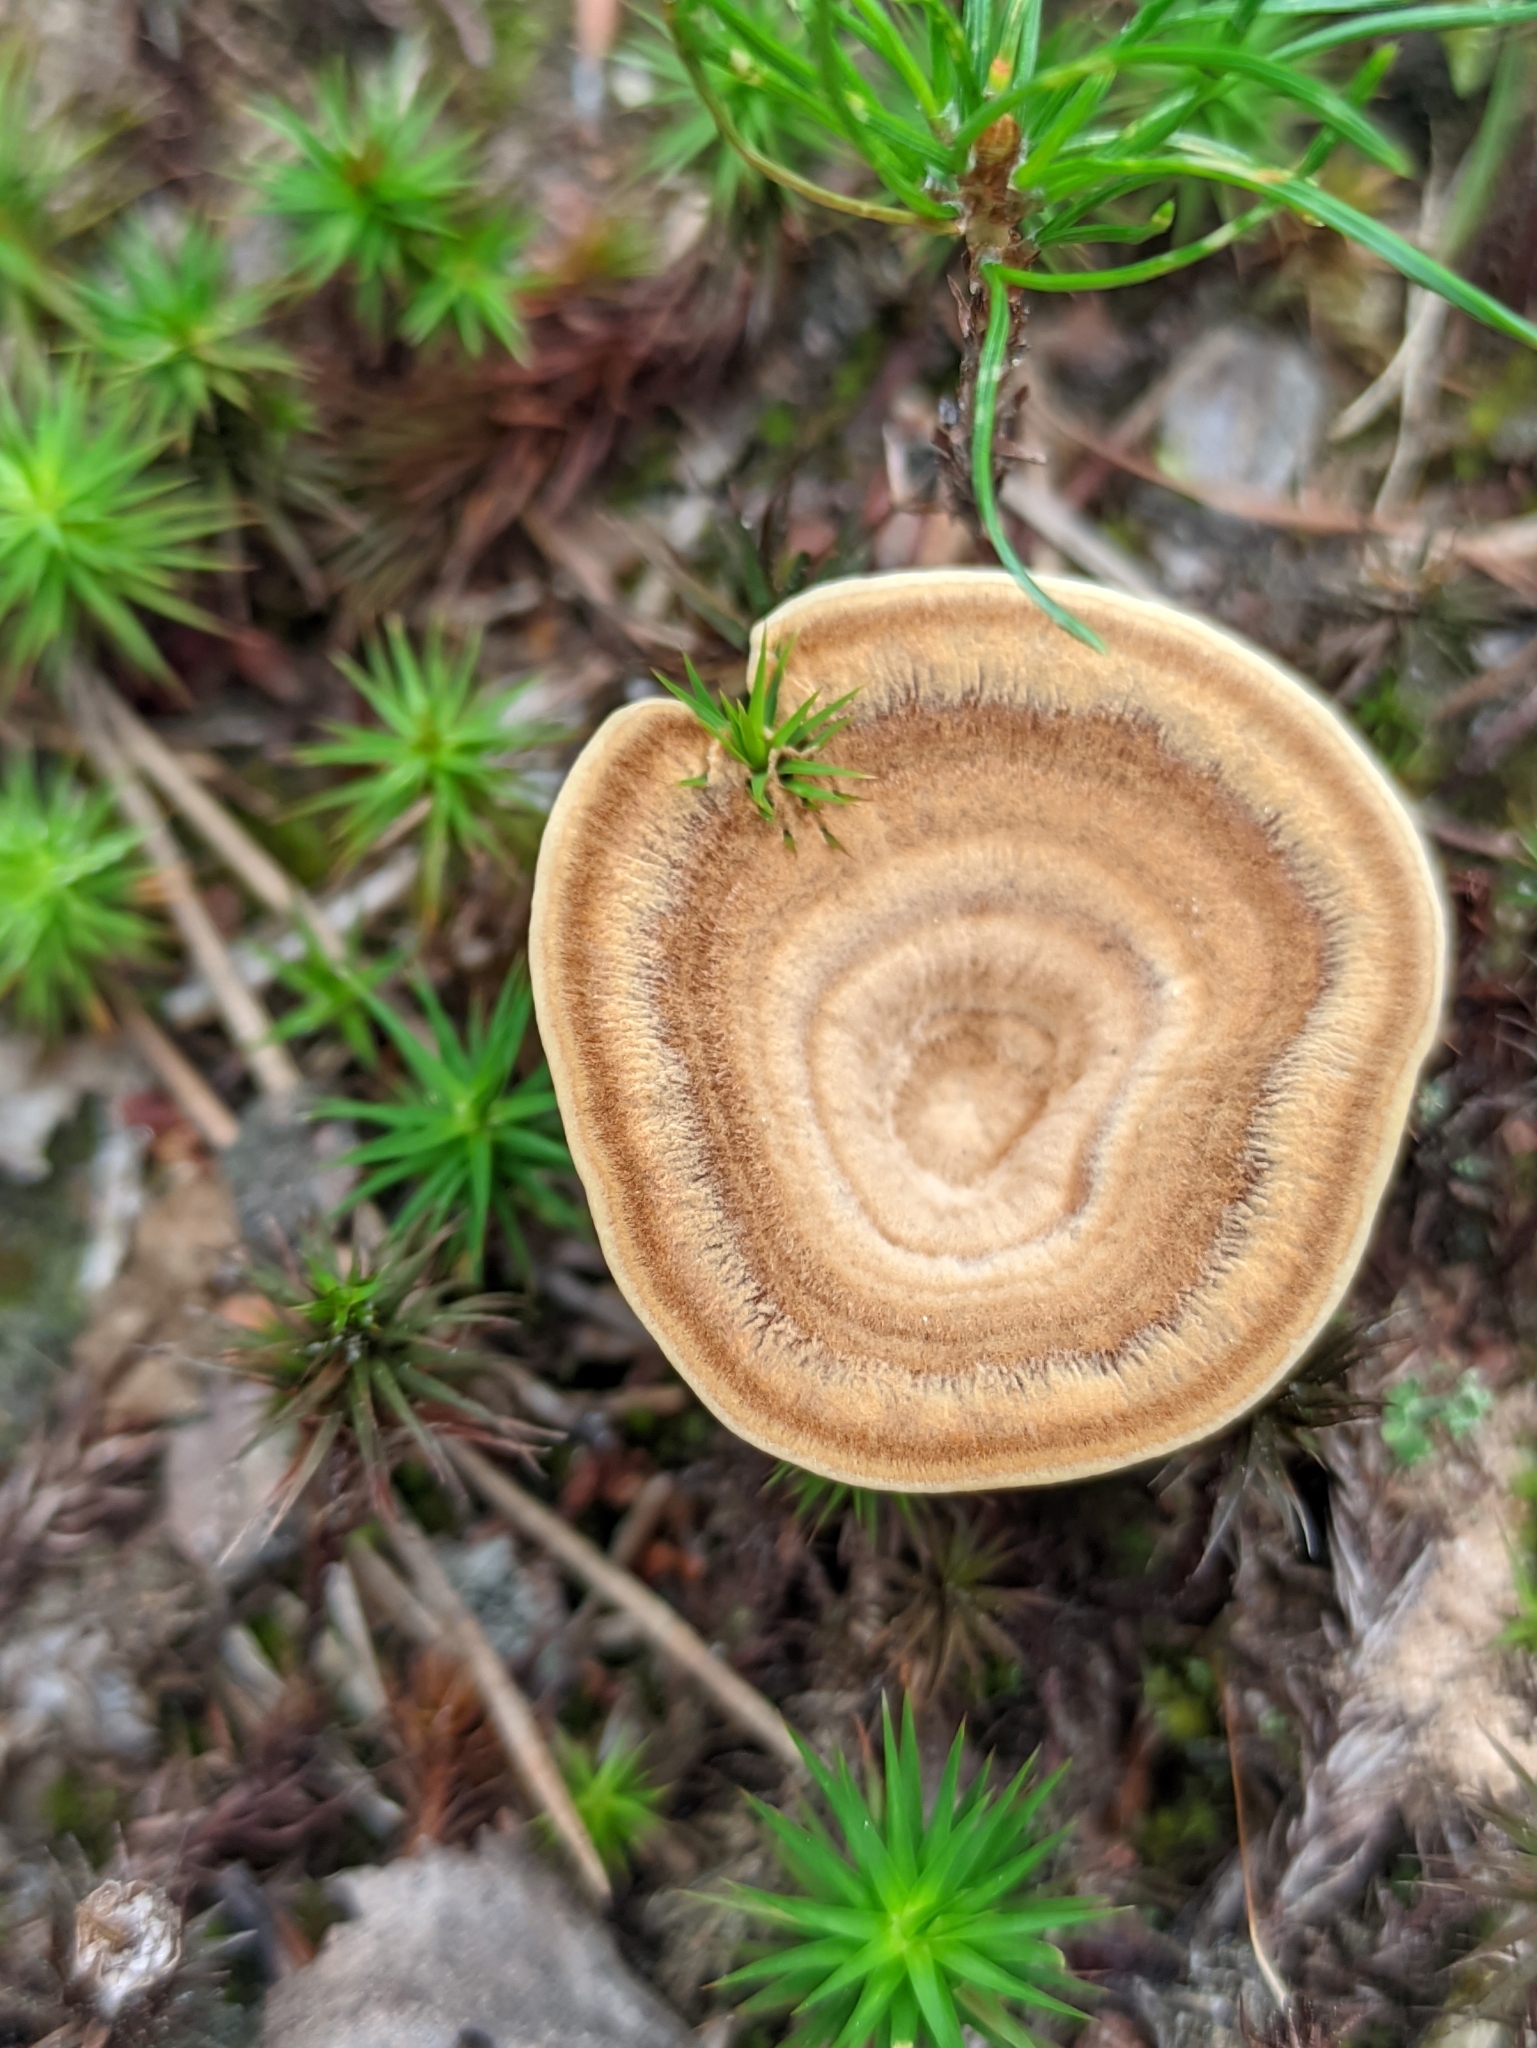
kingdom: Fungi
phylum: Basidiomycota
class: Agaricomycetes
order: Hymenochaetales
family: Hymenochaetaceae
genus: Coltricia
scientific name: Coltricia perennis
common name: Tiger's eye
